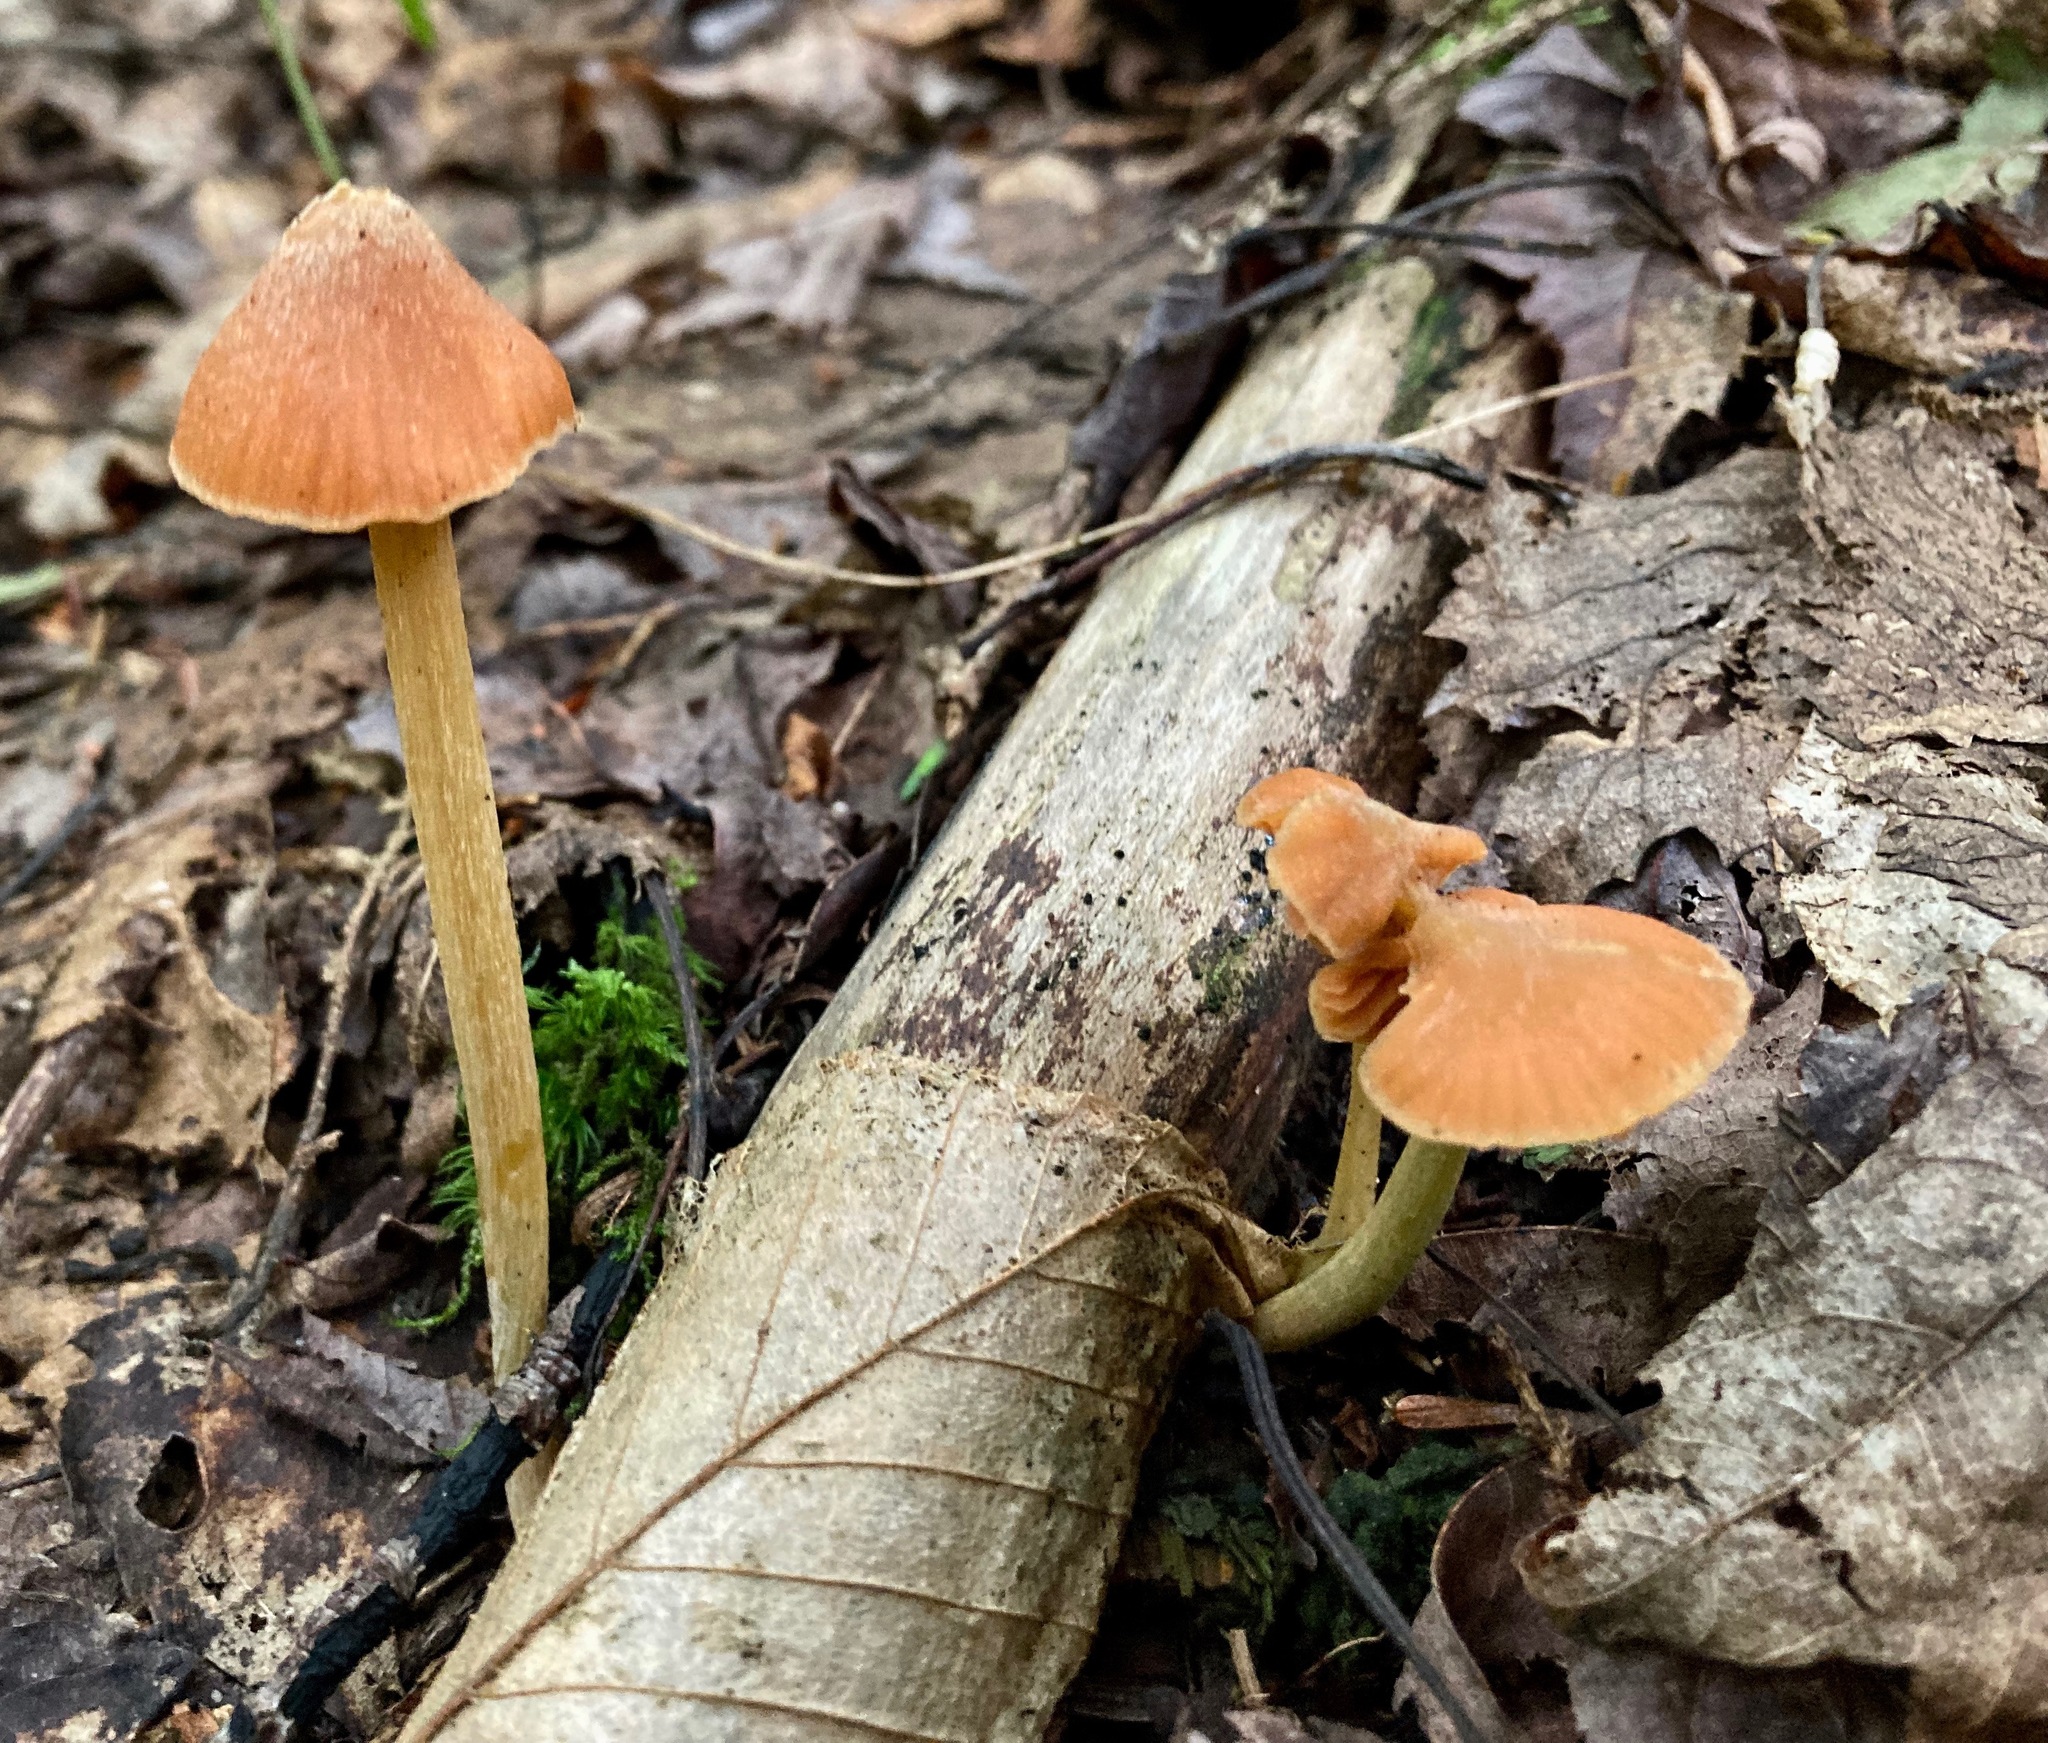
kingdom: Fungi
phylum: Basidiomycota
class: Agaricomycetes
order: Agaricales
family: Entolomataceae
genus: Entoloma
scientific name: Entoloma quadratum
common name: Salmon pinkgill
